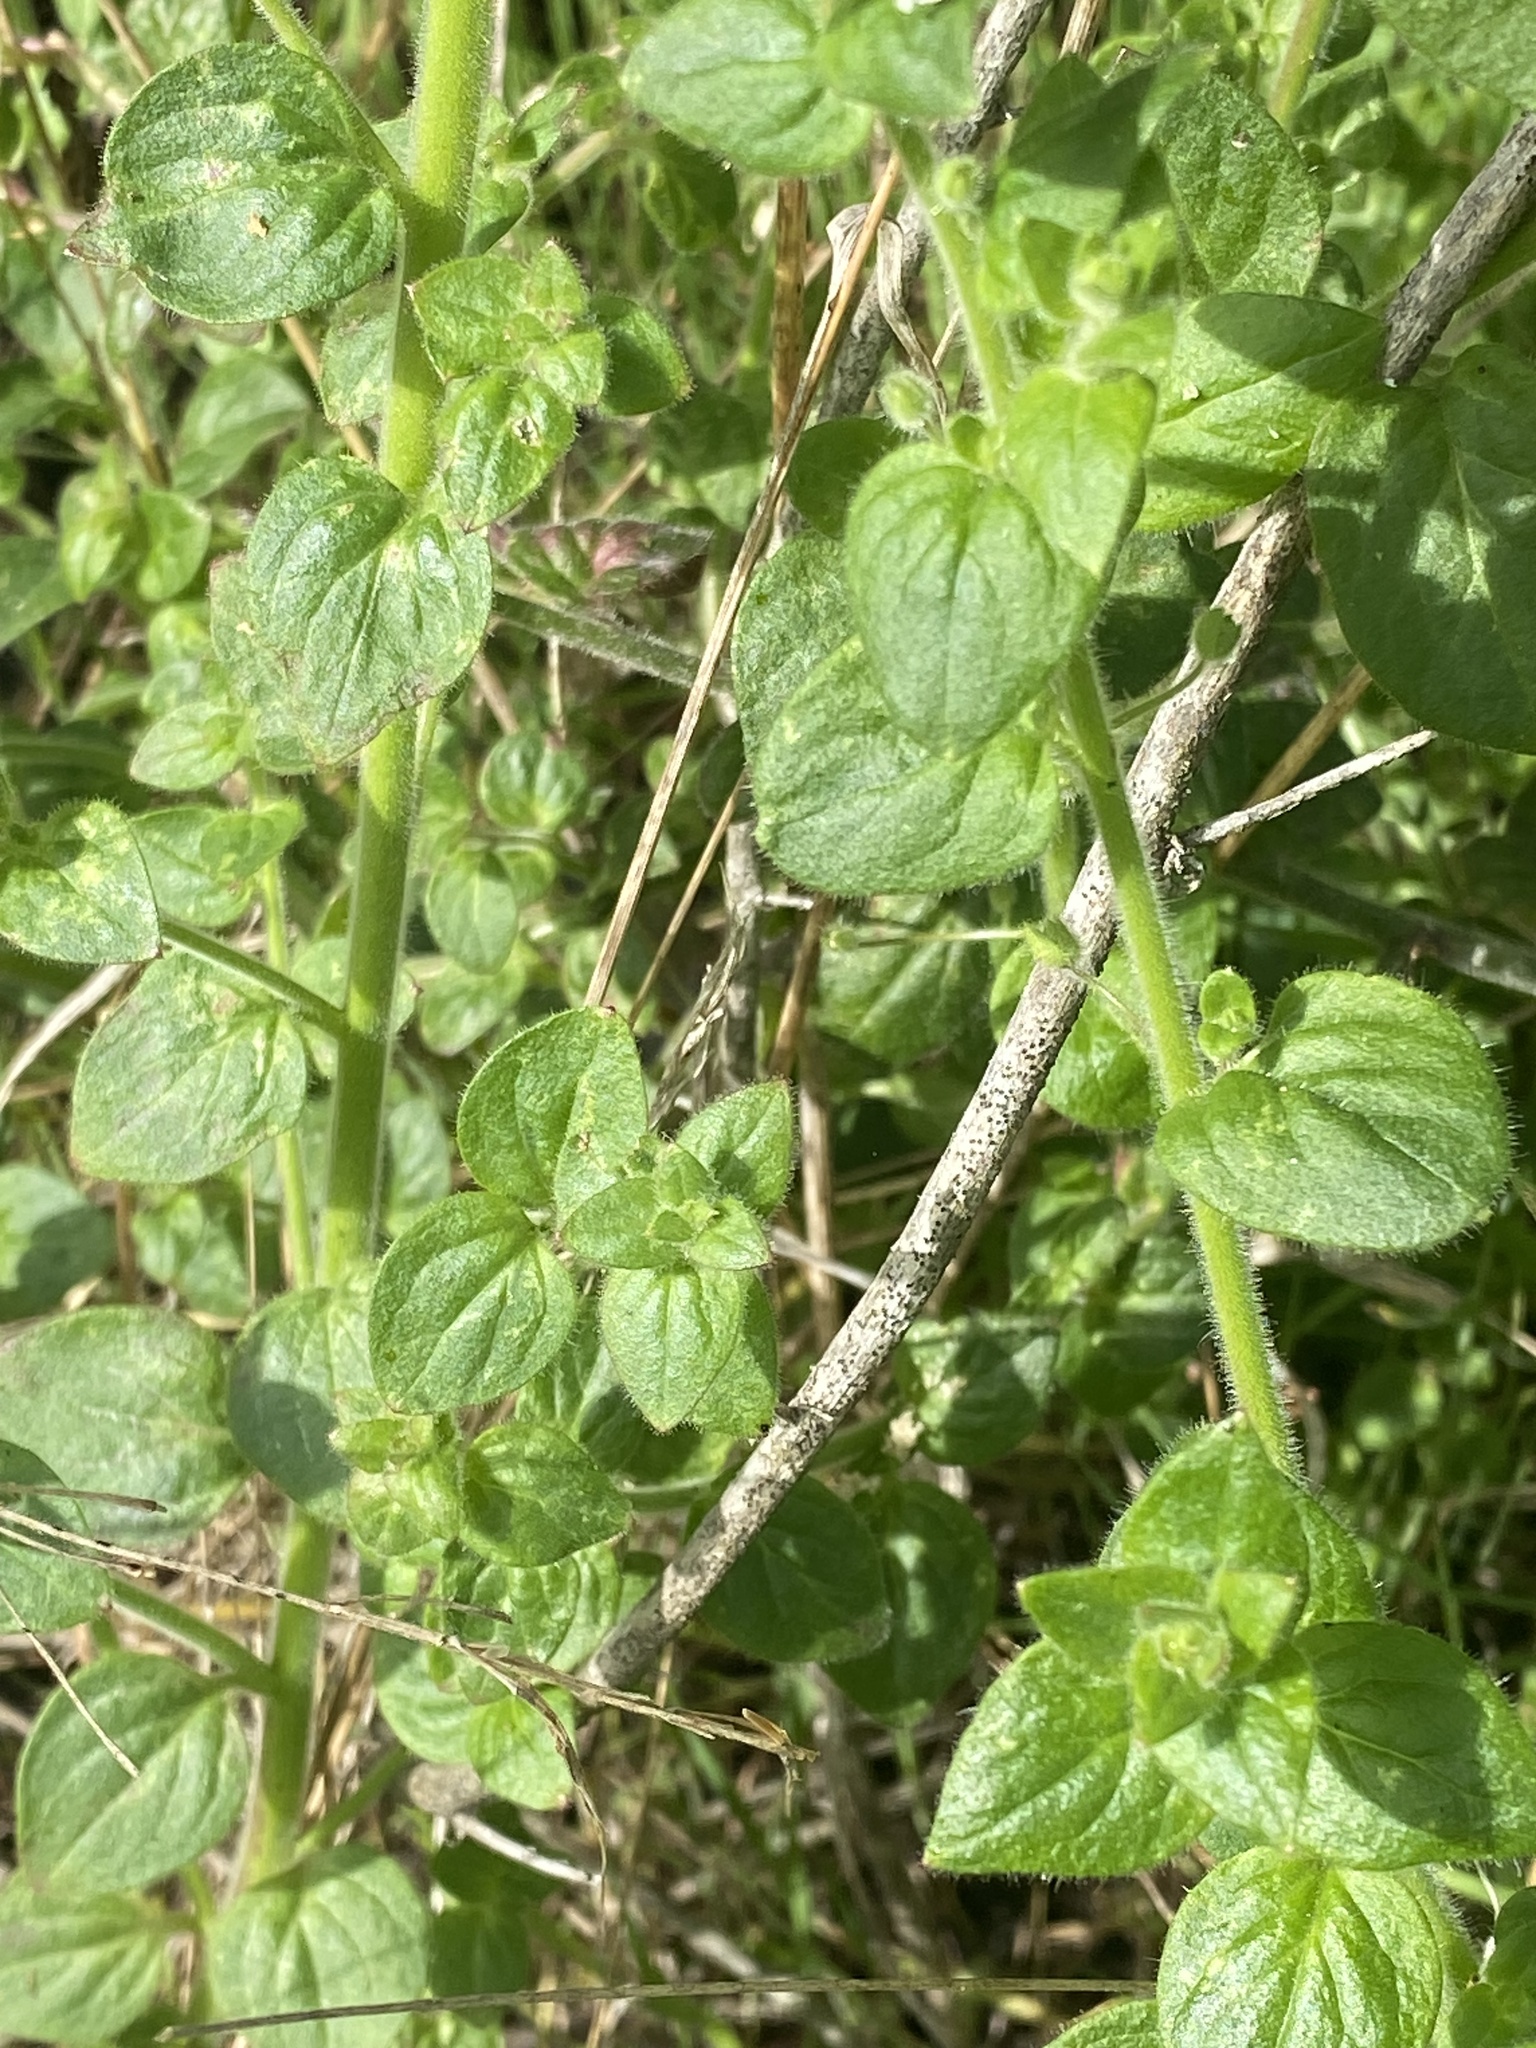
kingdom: Plantae
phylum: Tracheophyta
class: Magnoliopsida
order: Lamiales
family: Plantaginaceae
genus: Sairocarpus
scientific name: Sairocarpus nuttallianus
